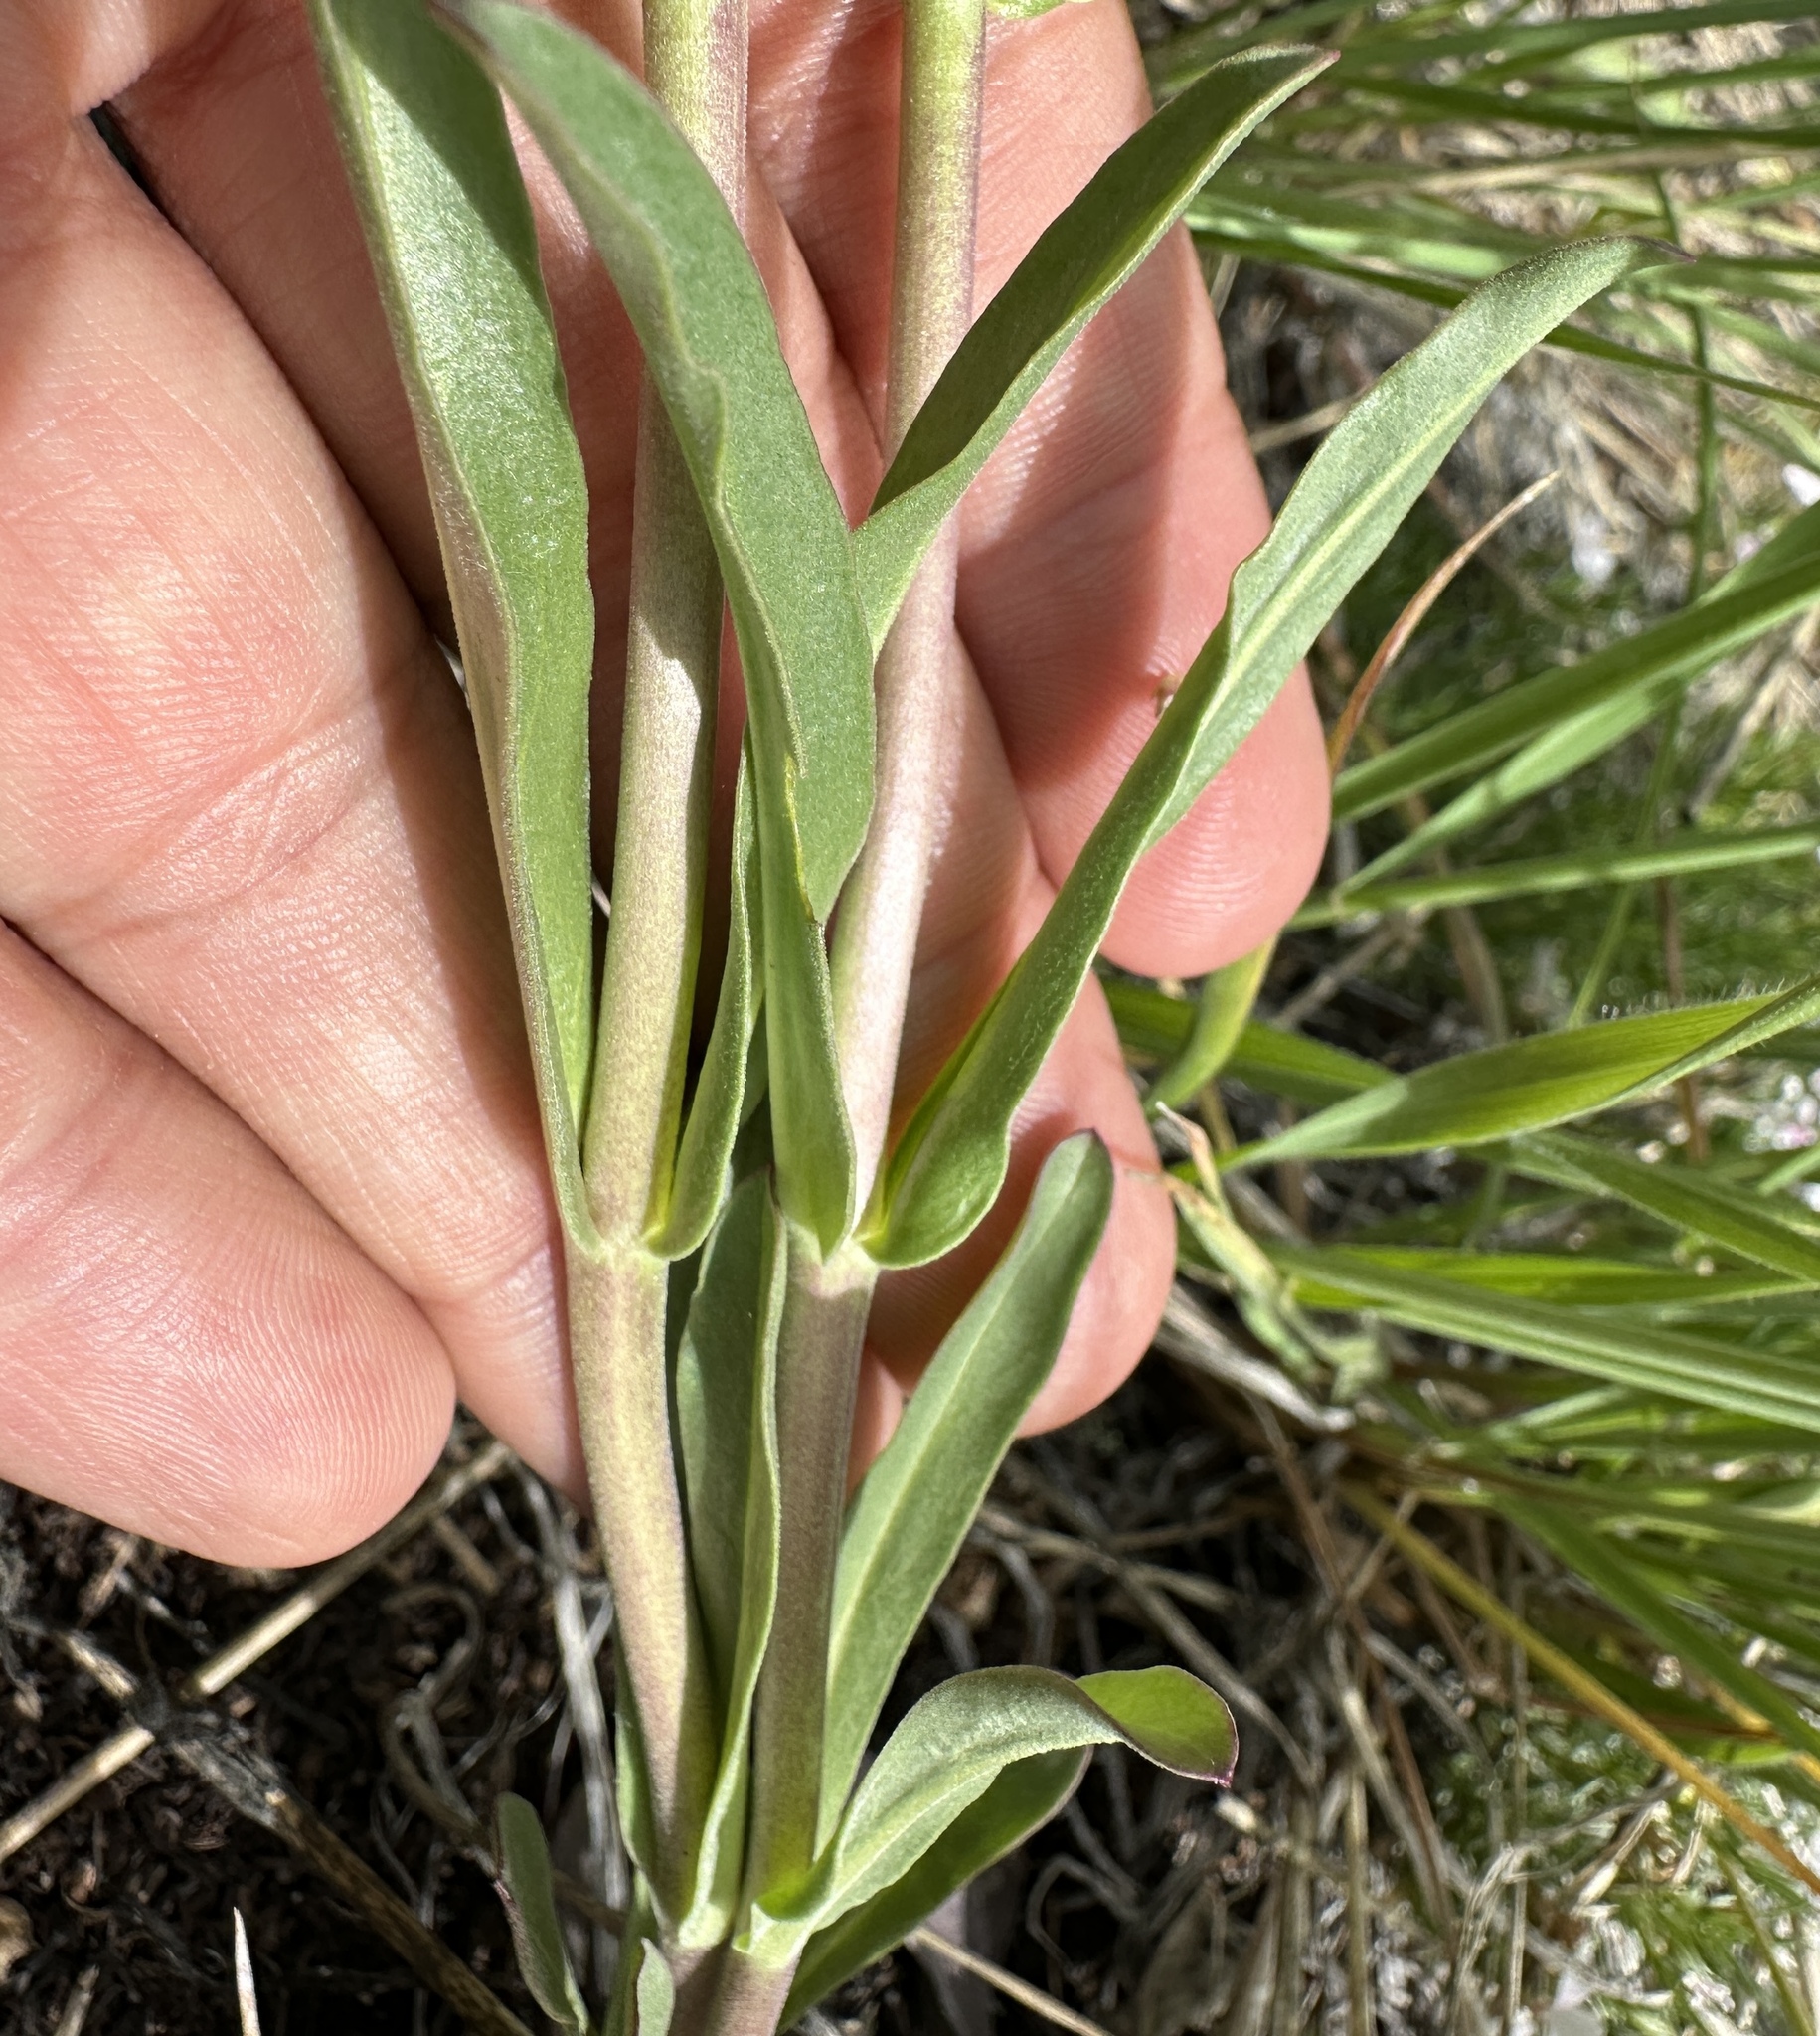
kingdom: Plantae
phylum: Tracheophyta
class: Magnoliopsida
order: Lamiales
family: Plantaginaceae
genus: Penstemon
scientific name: Penstemon tidestromii
